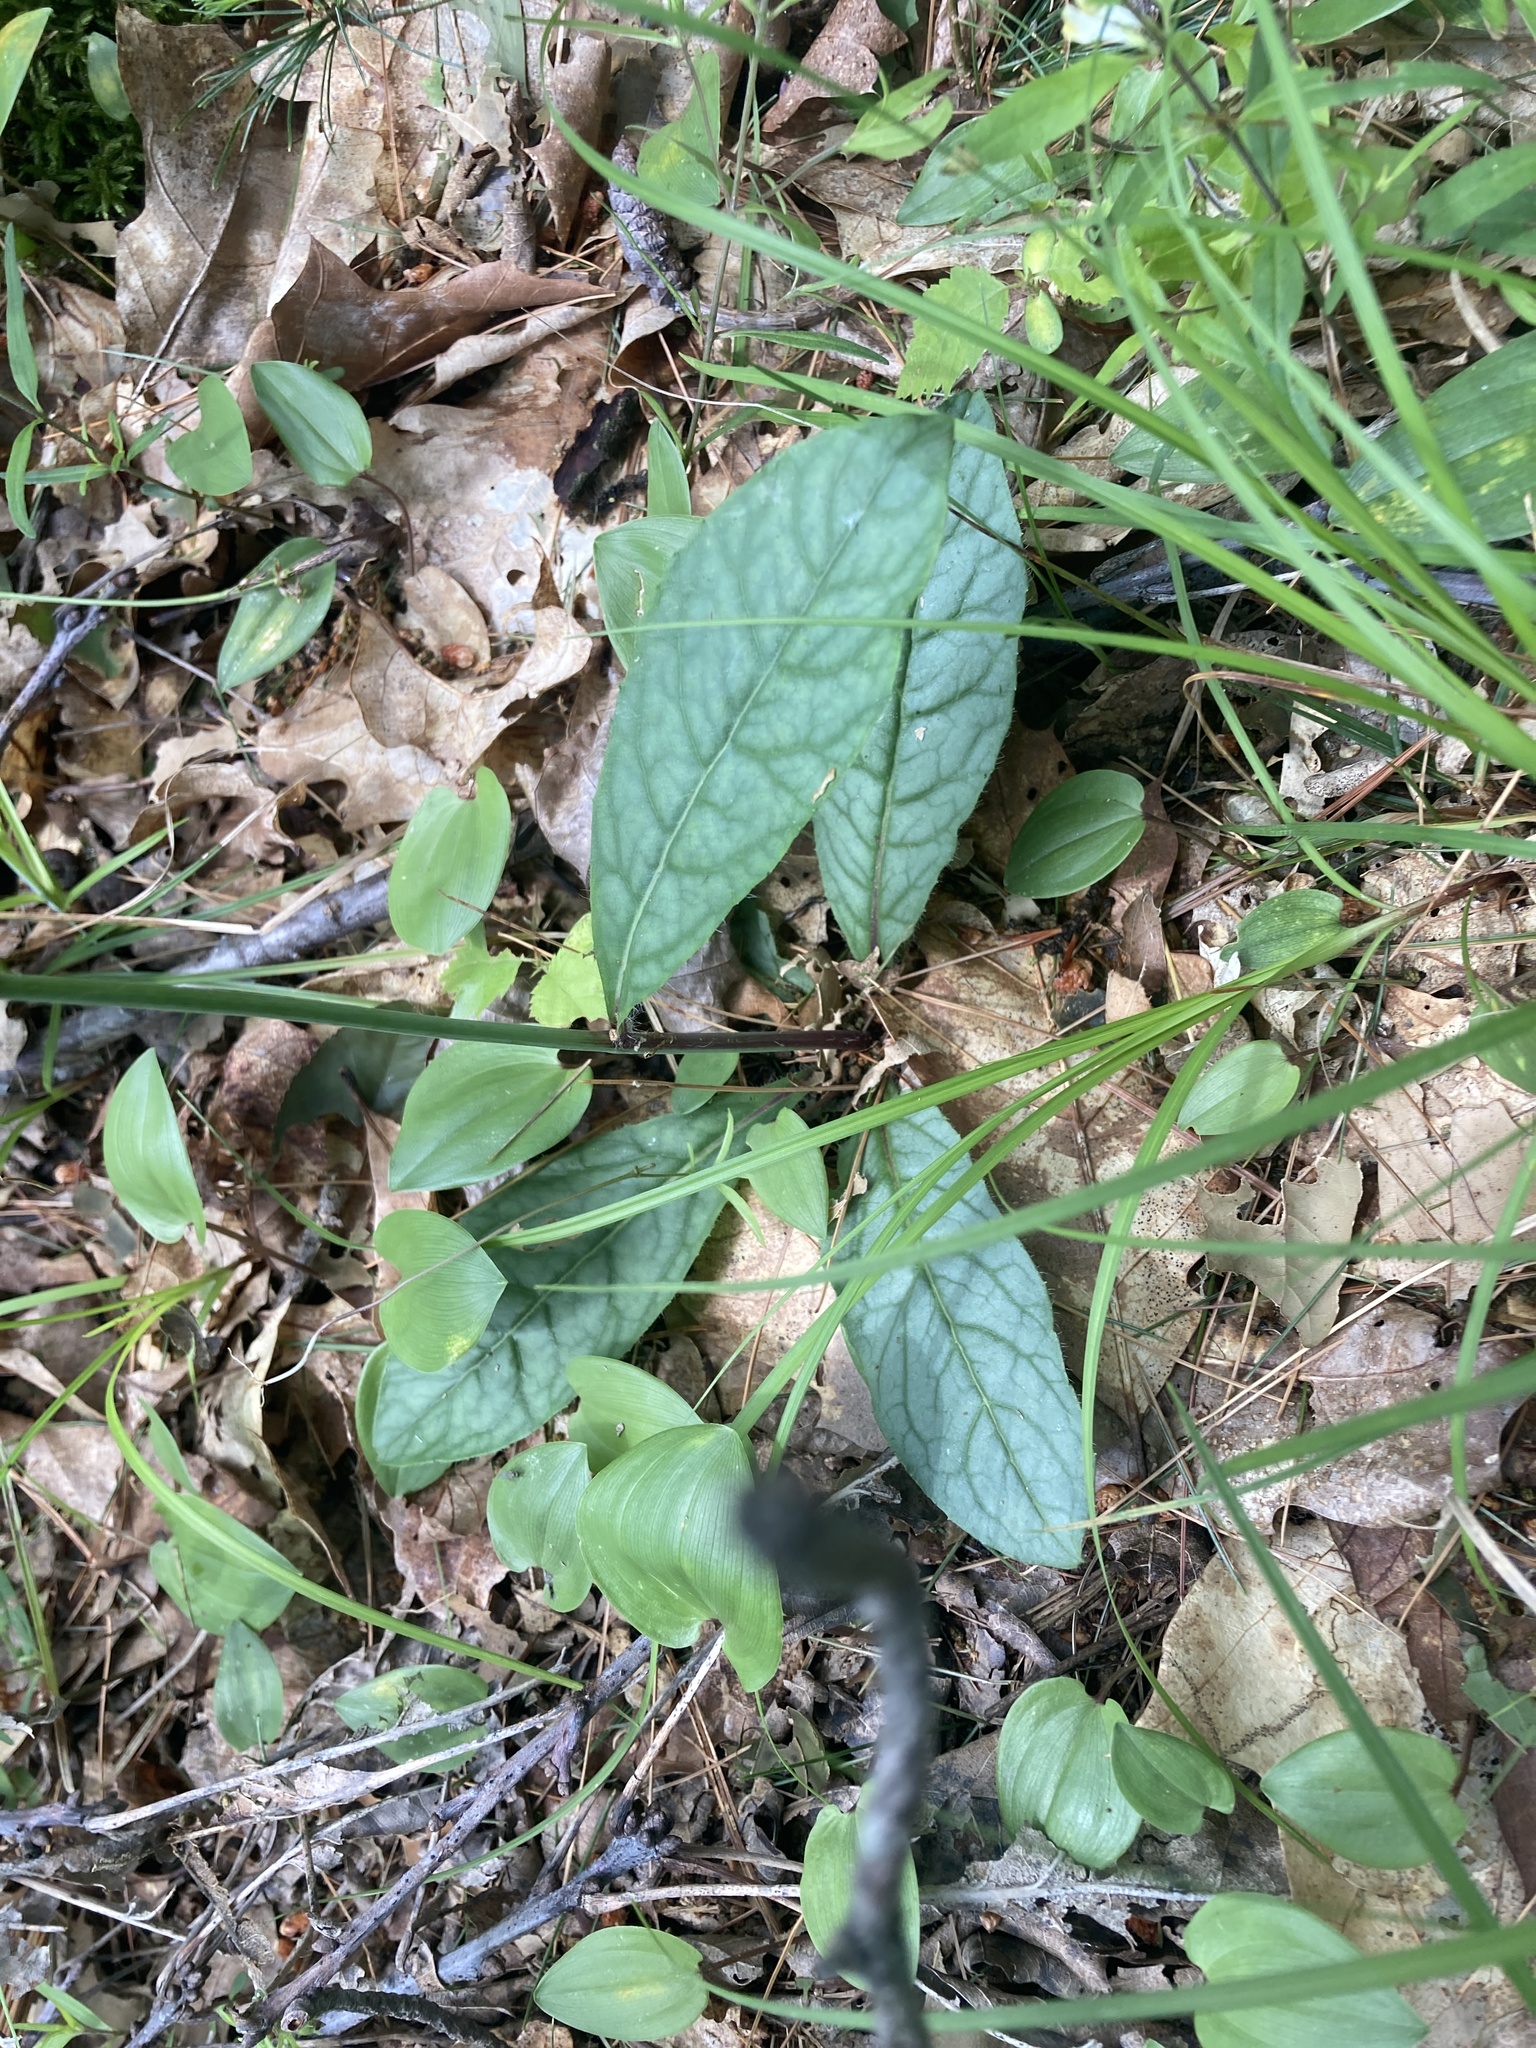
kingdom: Plantae
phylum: Tracheophyta
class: Magnoliopsida
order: Asterales
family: Asteraceae
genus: Hieracium
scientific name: Hieracium venosum
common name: Rattlesnake hawkweed
